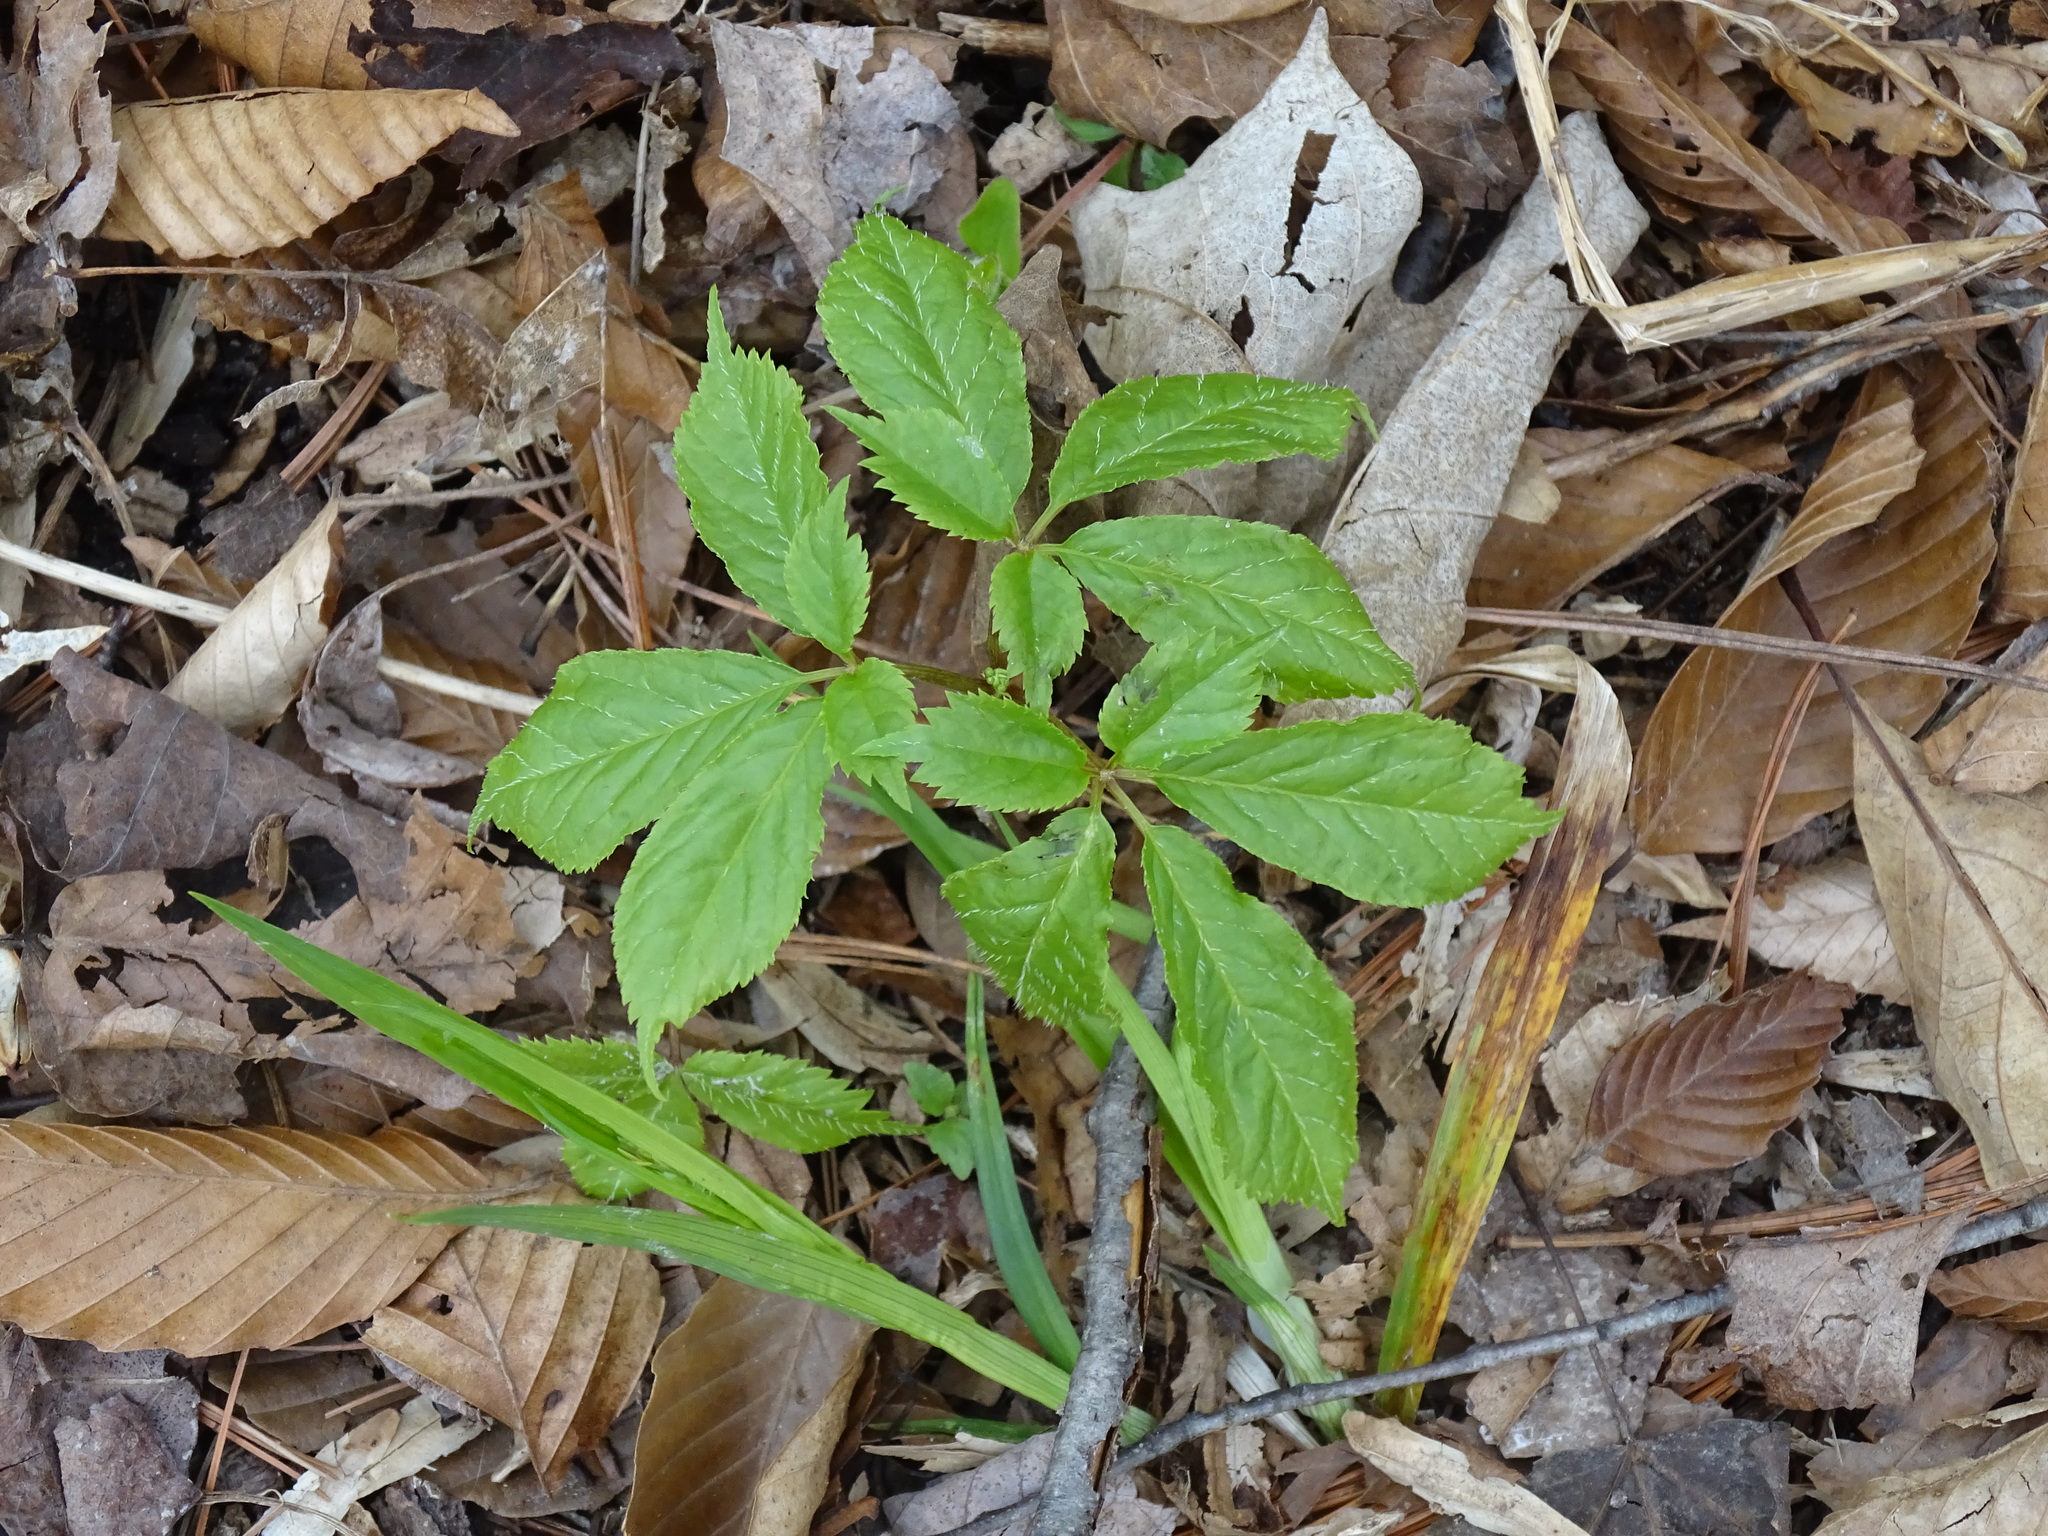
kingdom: Plantae
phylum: Tracheophyta
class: Magnoliopsida
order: Apiales
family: Araliaceae
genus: Panax
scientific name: Panax quinquefolius
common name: American ginseng
